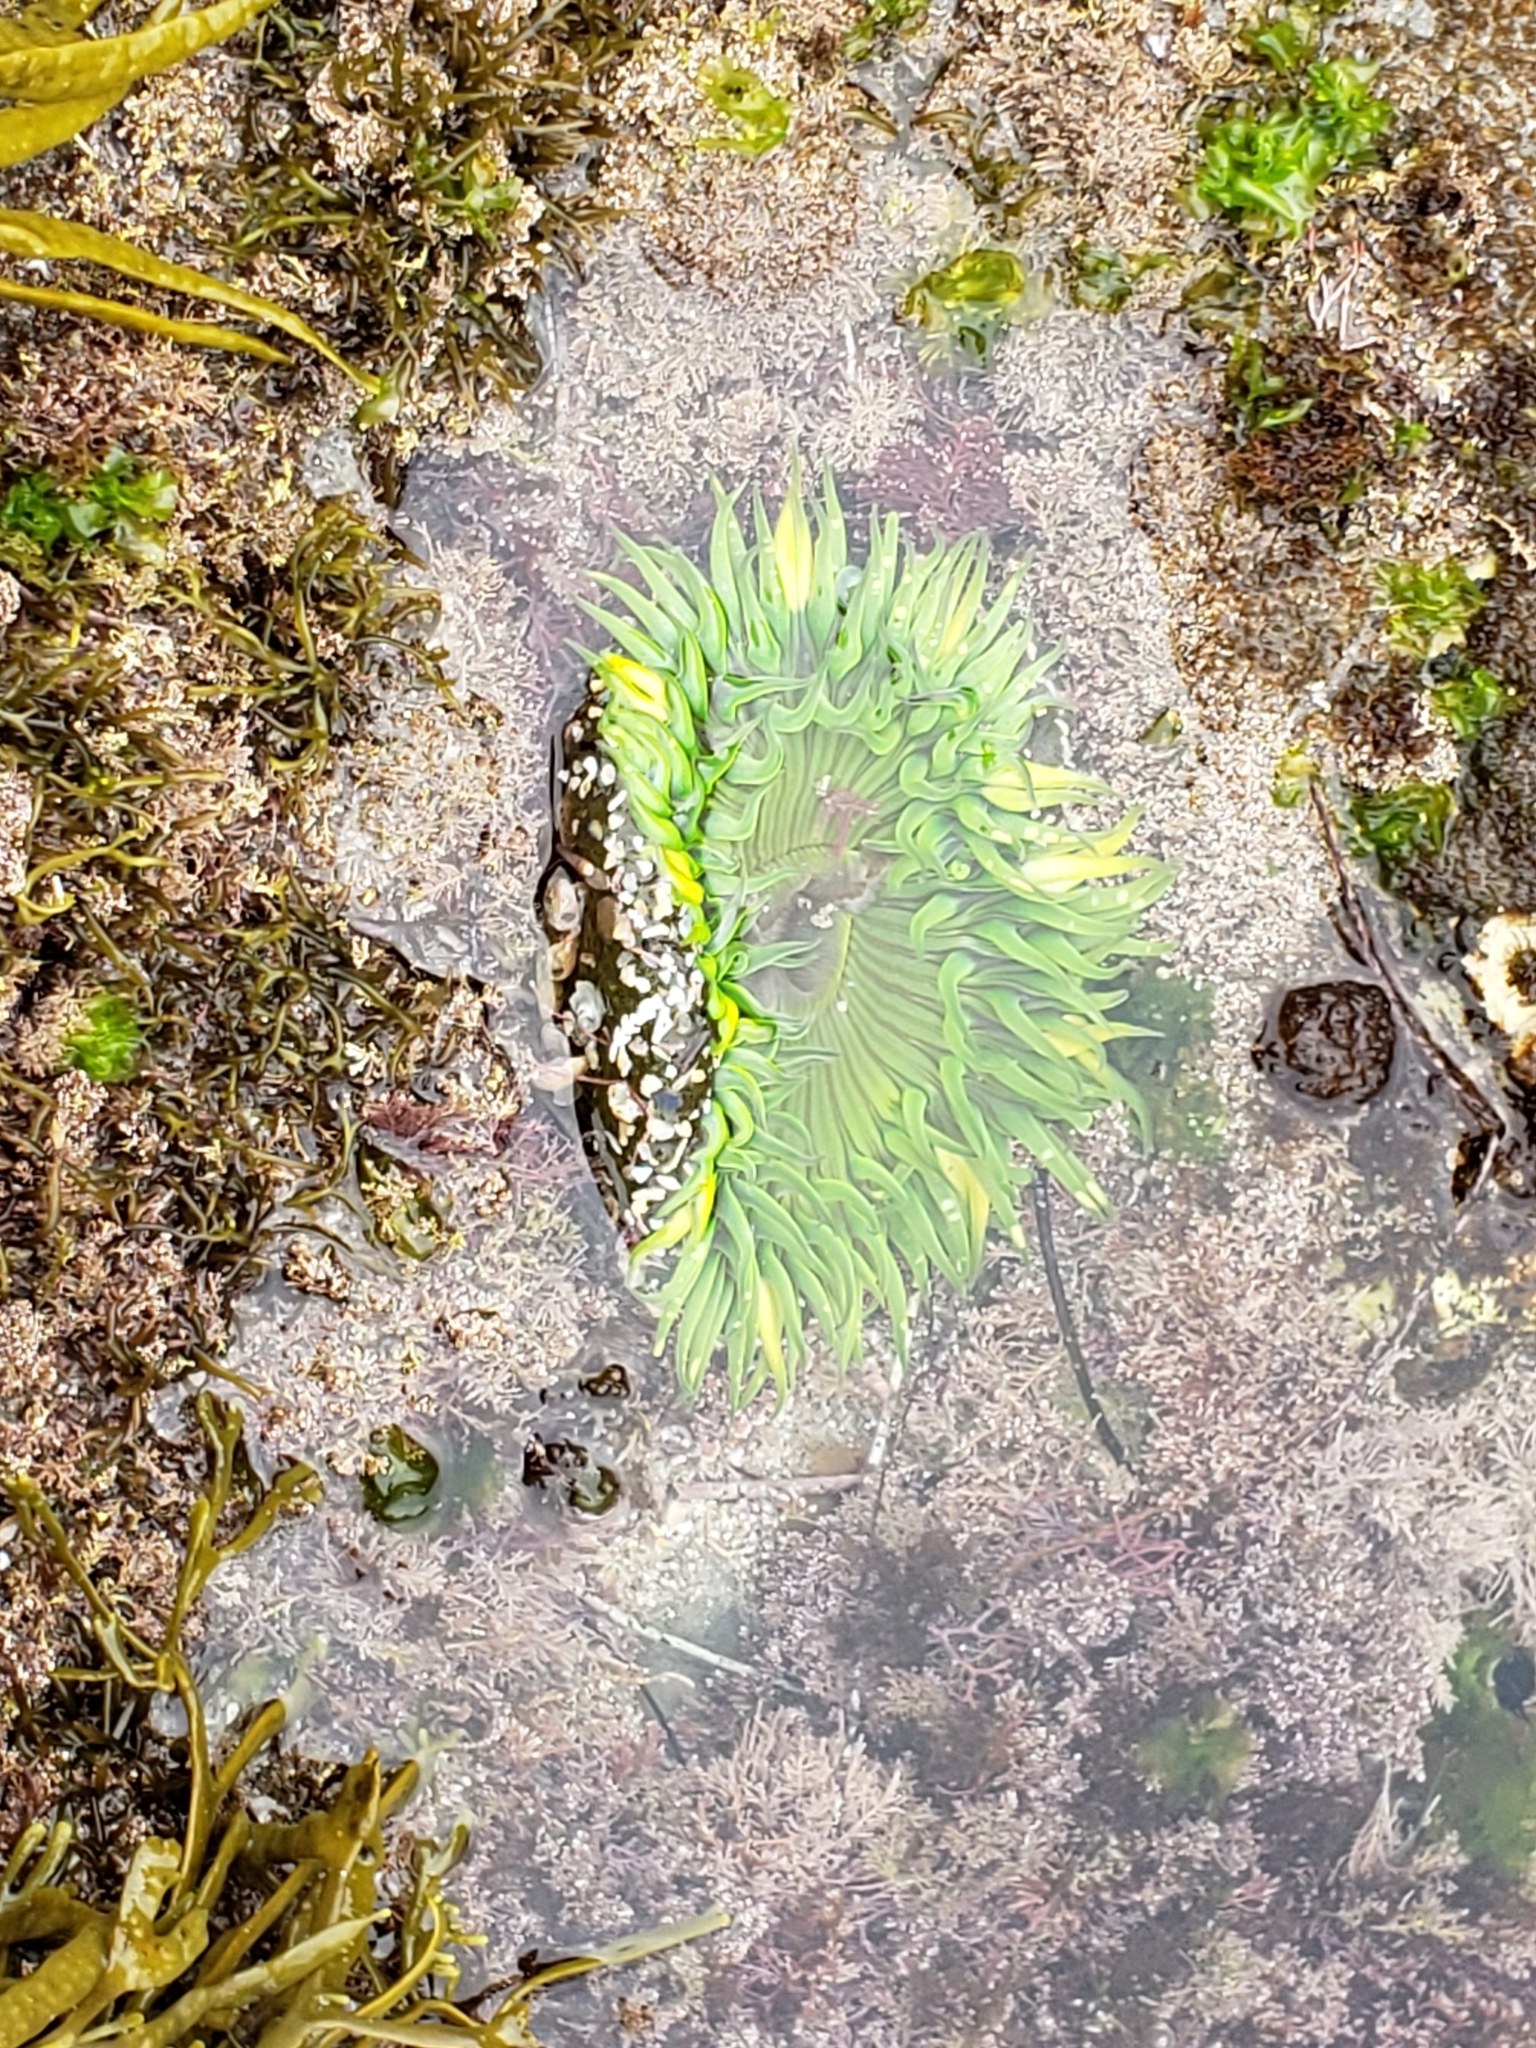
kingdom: Animalia
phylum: Cnidaria
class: Anthozoa
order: Actiniaria
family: Actiniidae
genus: Anthopleura
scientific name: Anthopleura sola
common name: Sun anemone
